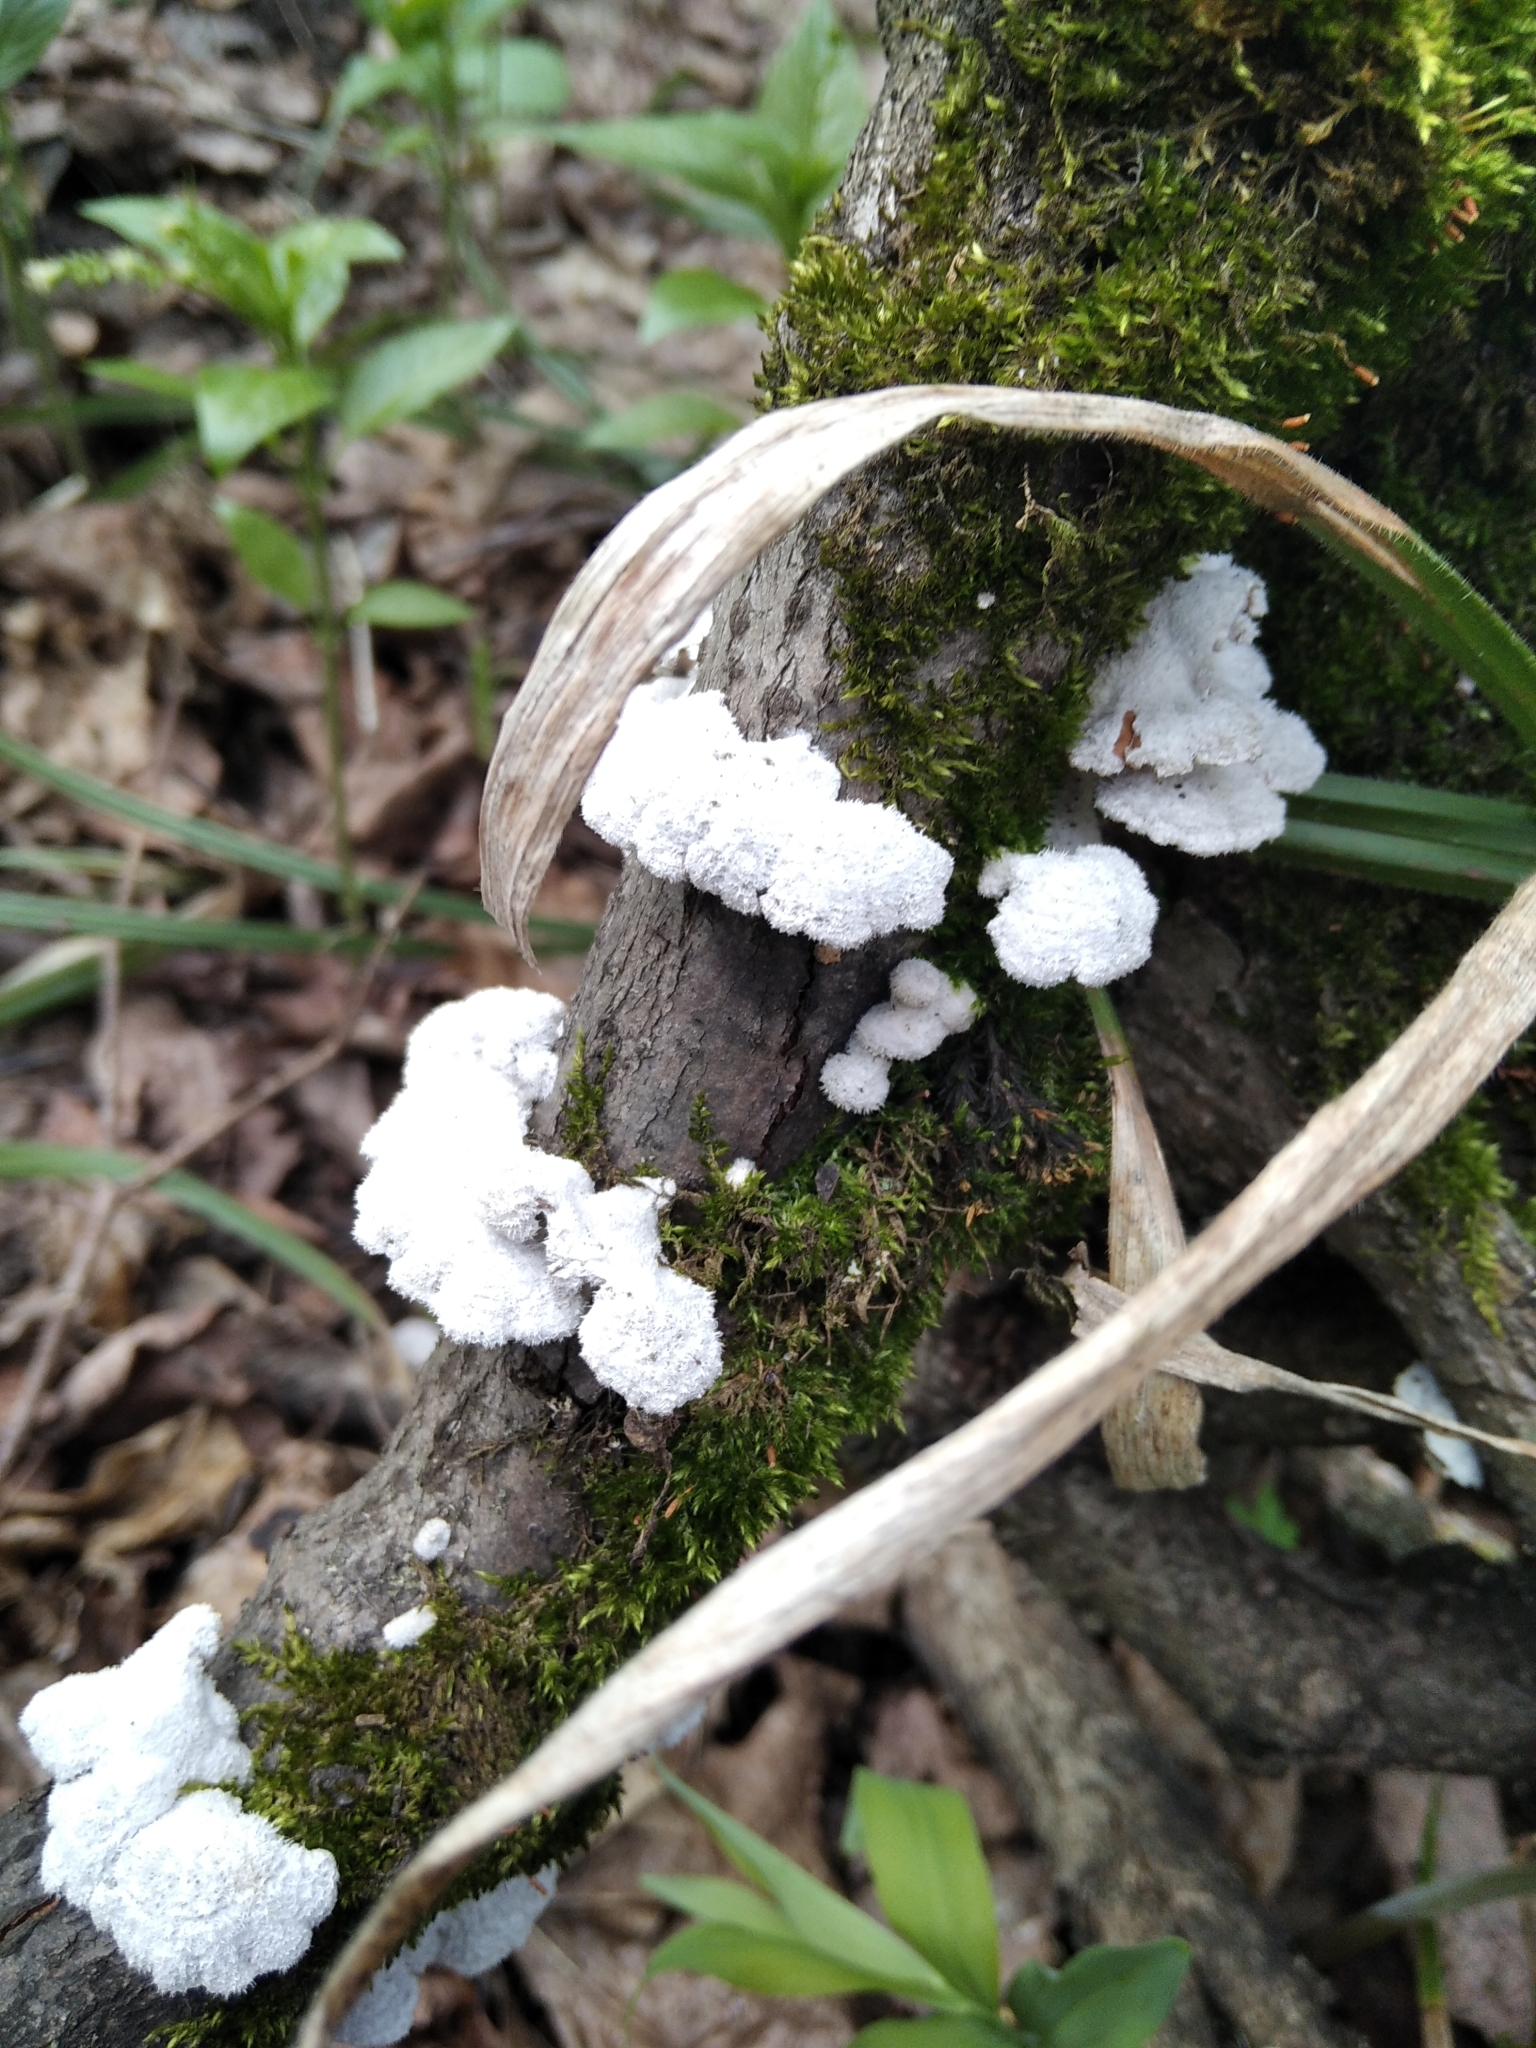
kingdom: Fungi
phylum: Basidiomycota
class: Agaricomycetes
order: Agaricales
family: Schizophyllaceae
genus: Schizophyllum
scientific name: Schizophyllum commune
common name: Common porecrust
